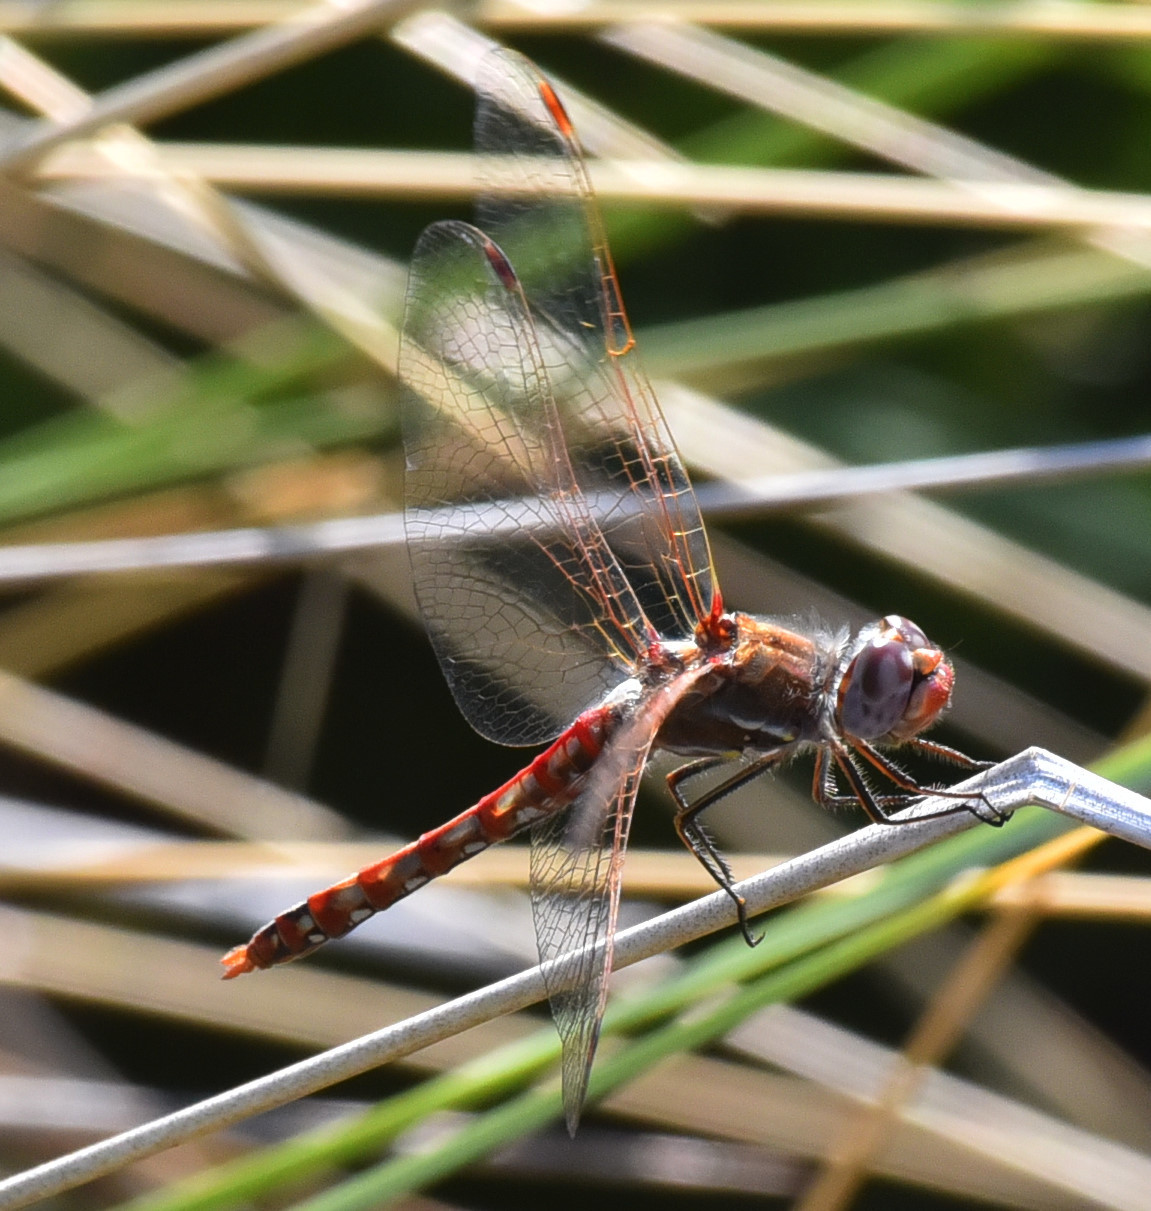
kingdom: Animalia
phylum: Arthropoda
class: Insecta
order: Odonata
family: Libellulidae
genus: Sympetrum
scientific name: Sympetrum corruptum
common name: Variegated meadowhawk
